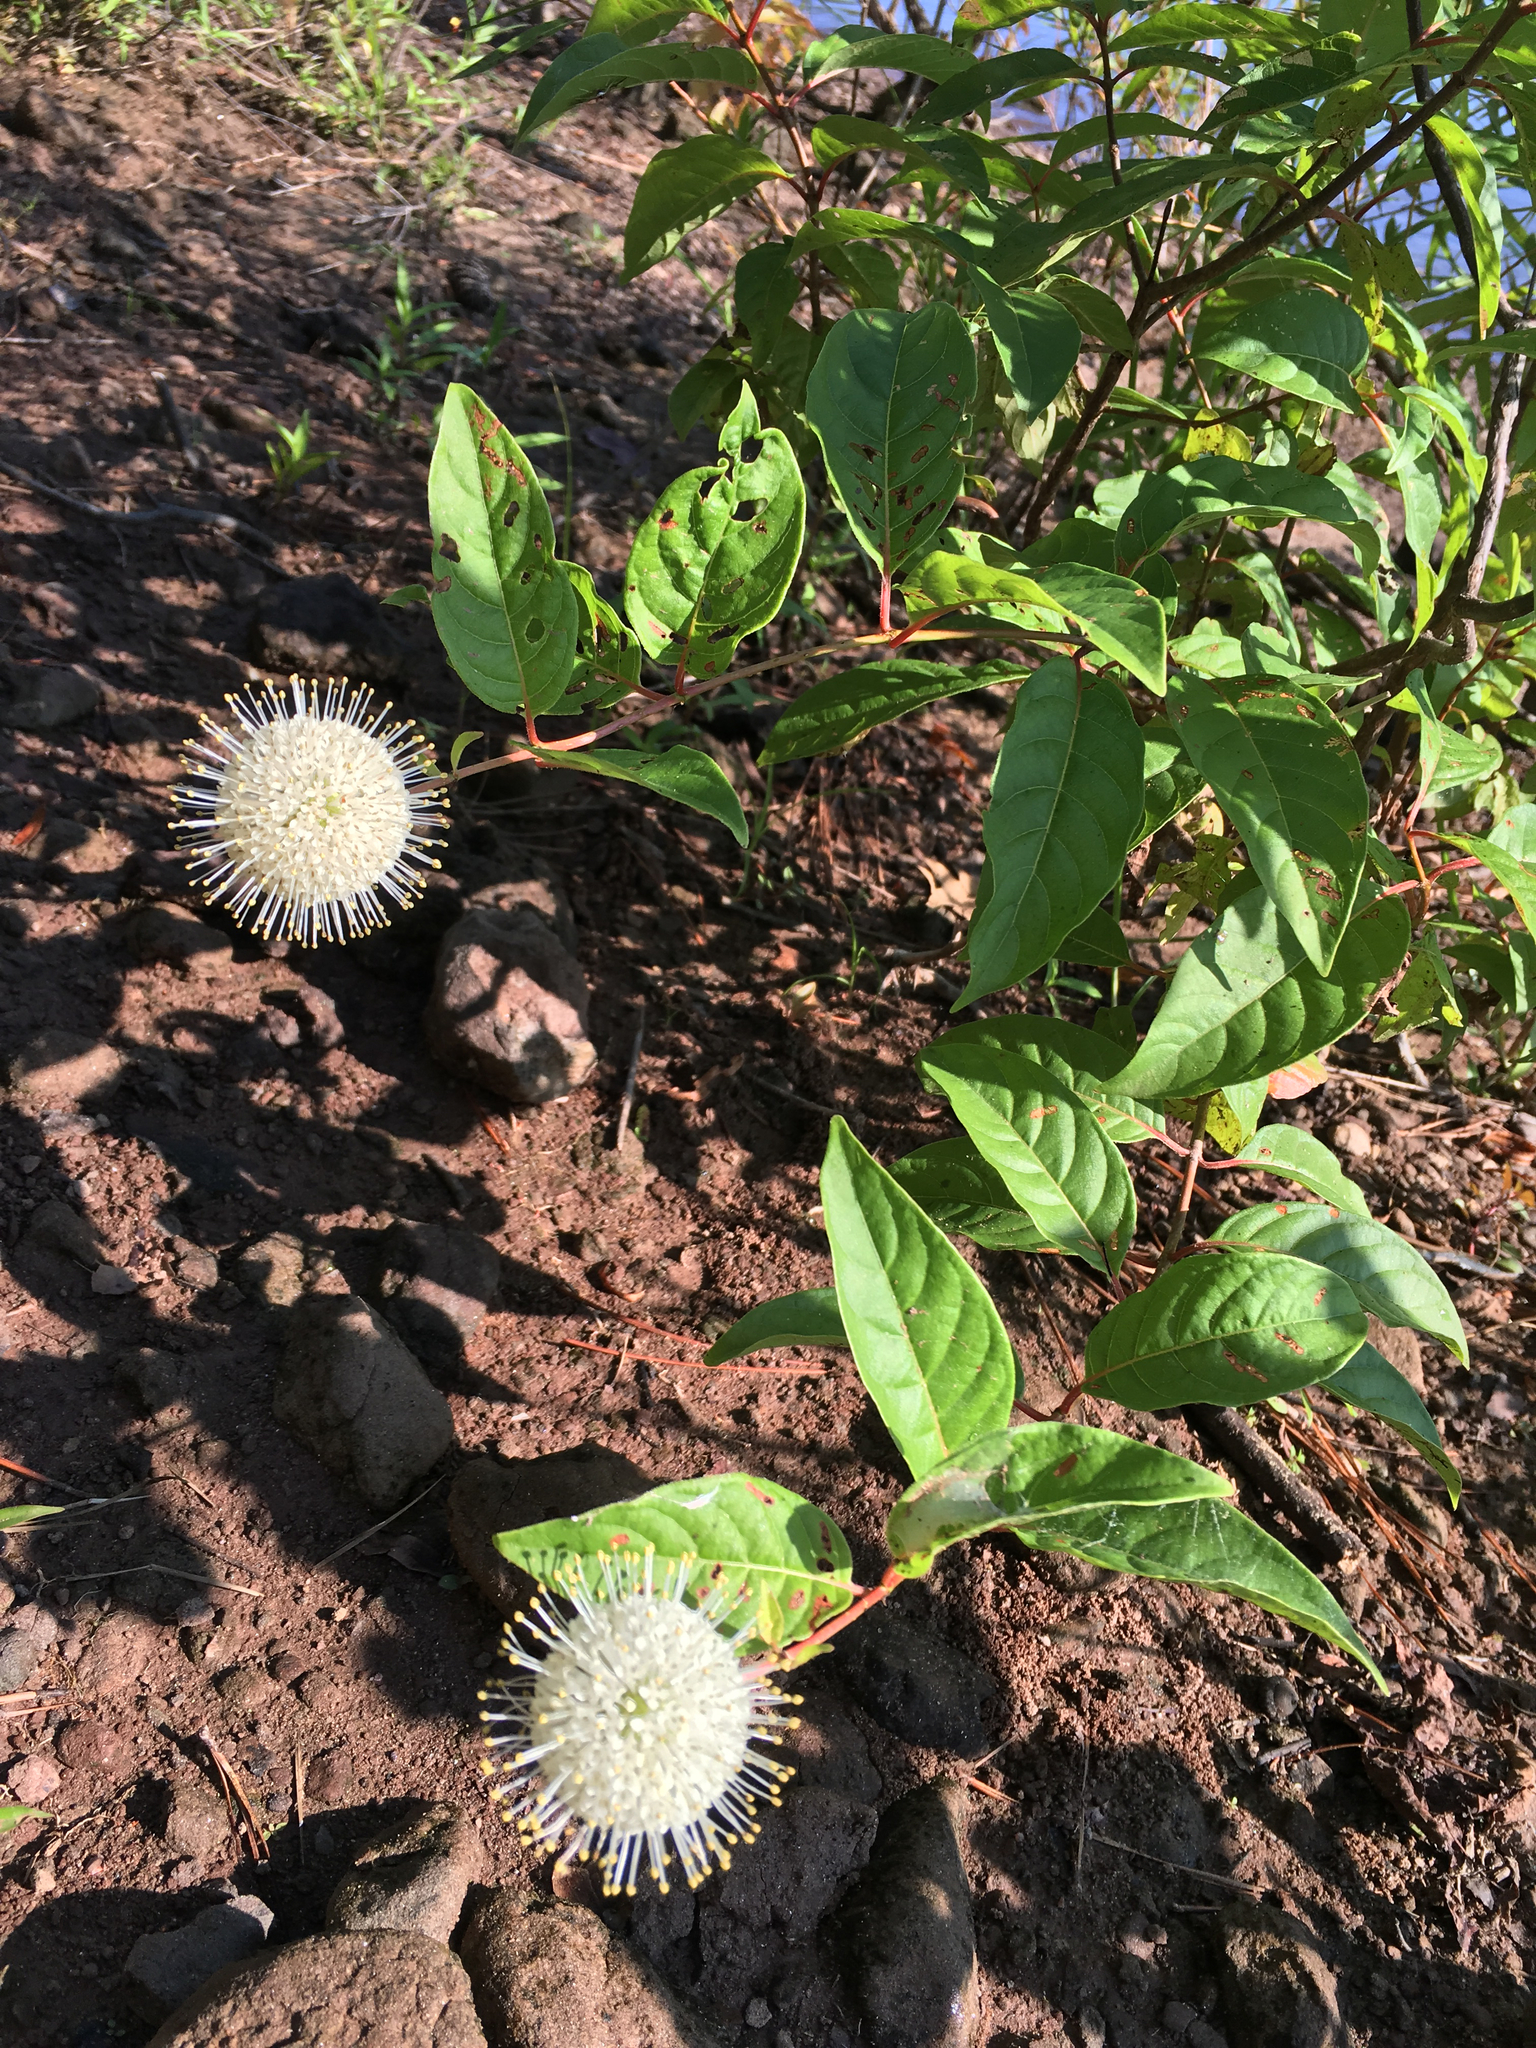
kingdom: Plantae
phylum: Tracheophyta
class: Magnoliopsida
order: Gentianales
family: Rubiaceae
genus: Cephalanthus
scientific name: Cephalanthus occidentalis
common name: Button-willow
